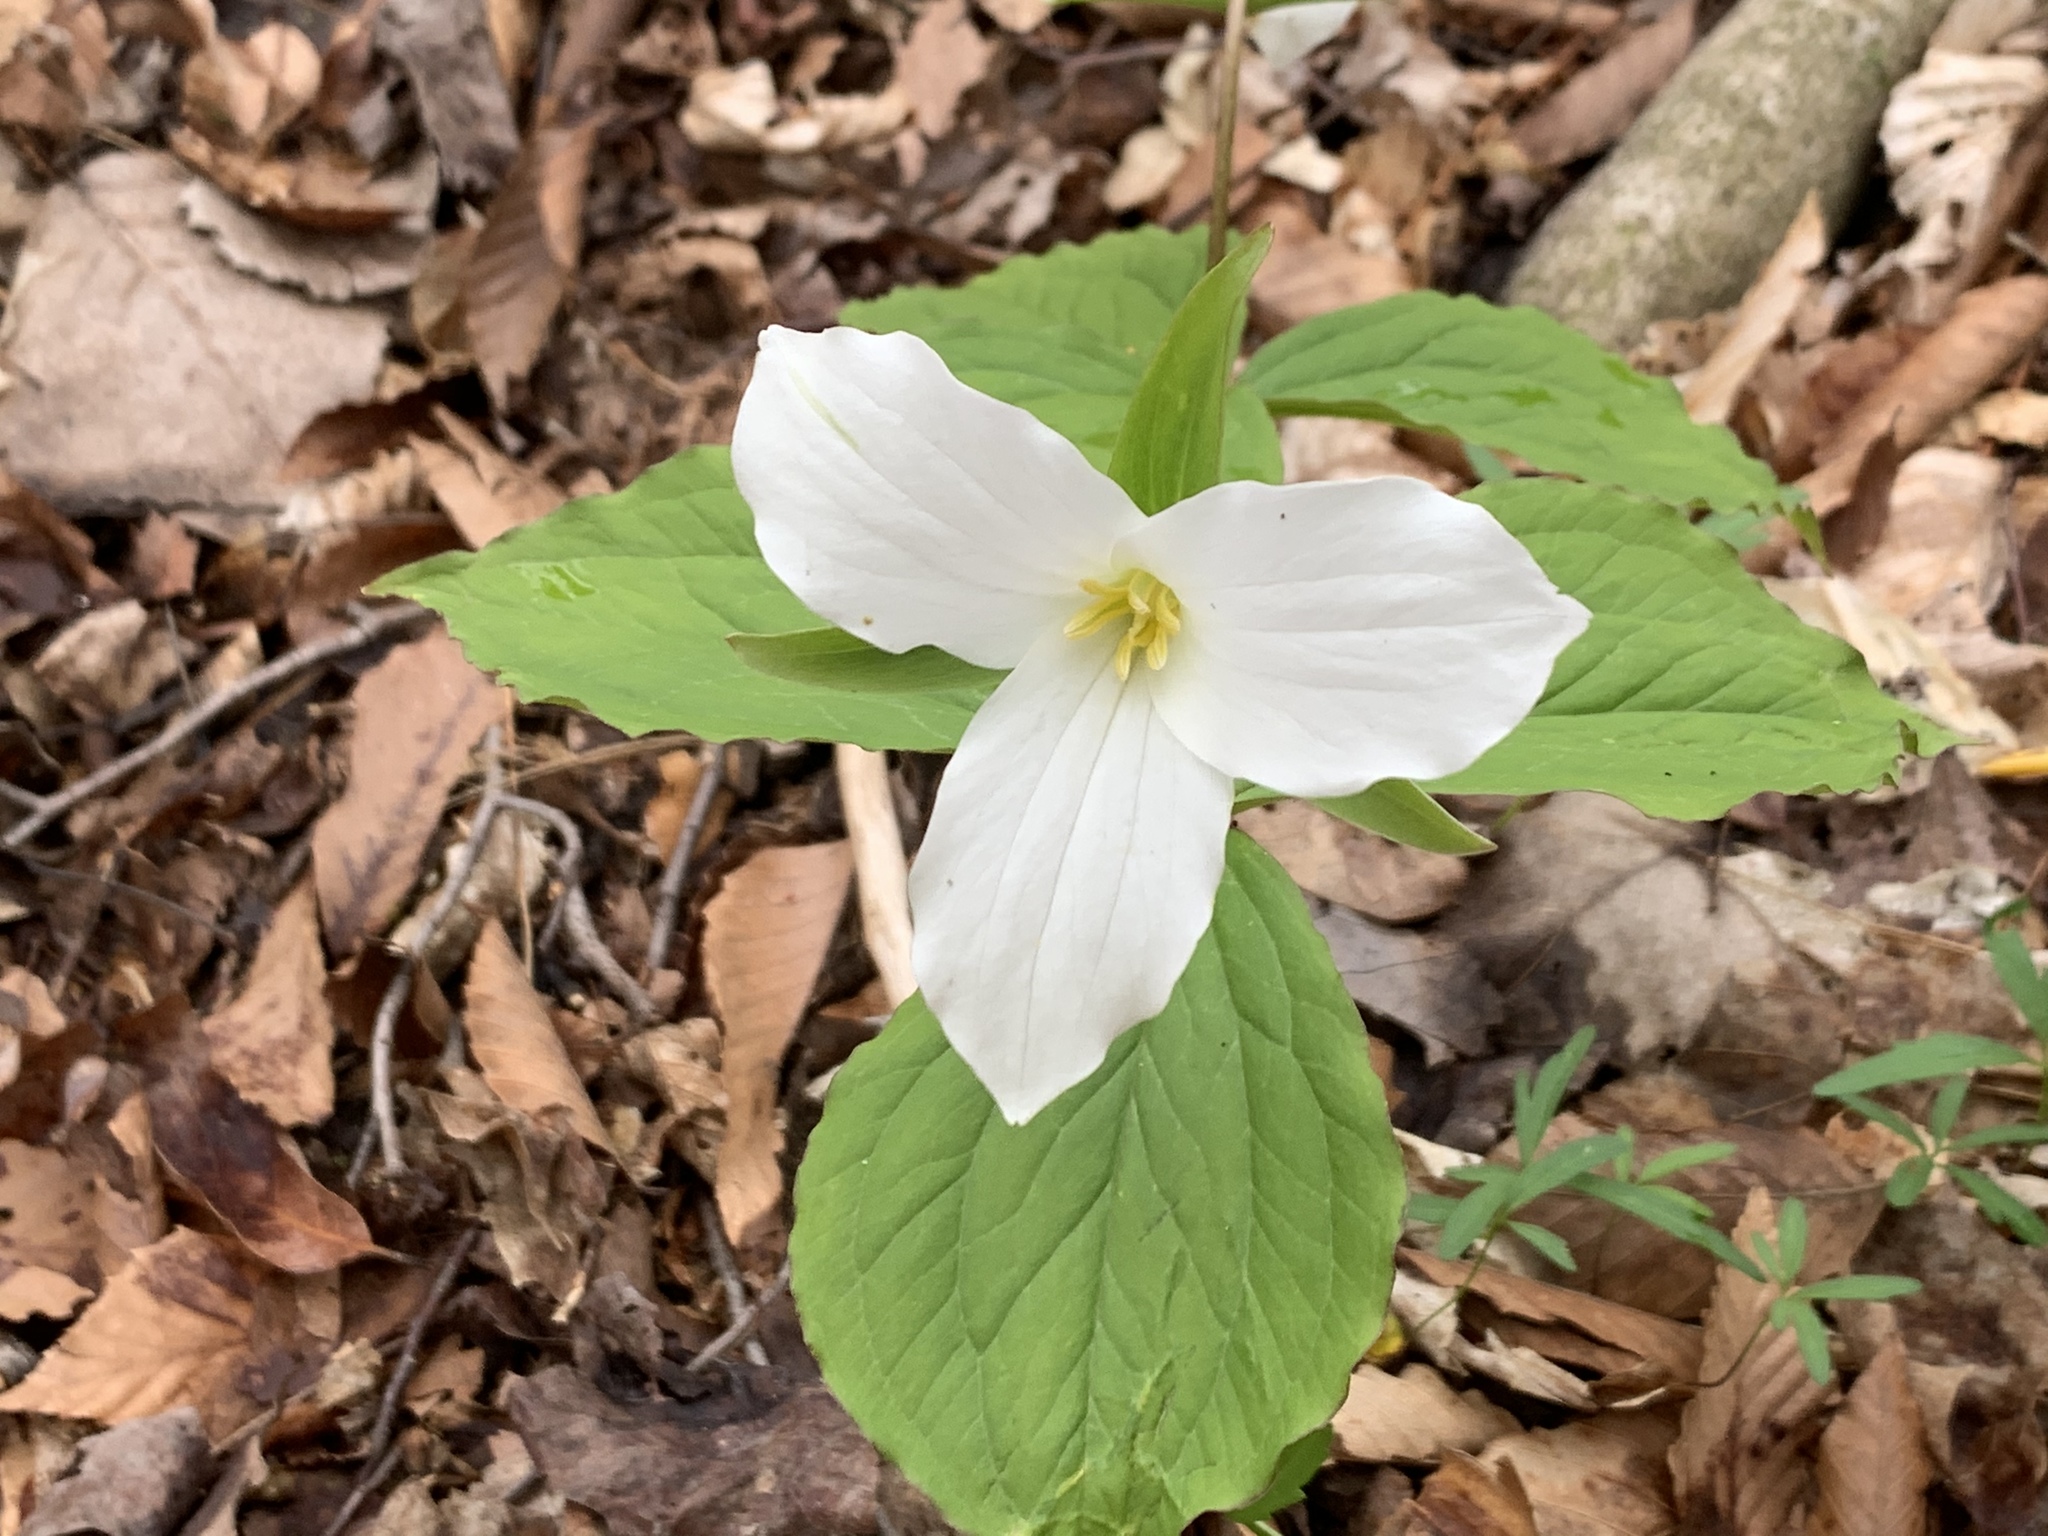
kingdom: Plantae
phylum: Tracheophyta
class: Liliopsida
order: Liliales
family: Melanthiaceae
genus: Trillium
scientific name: Trillium grandiflorum
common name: Great white trillium
